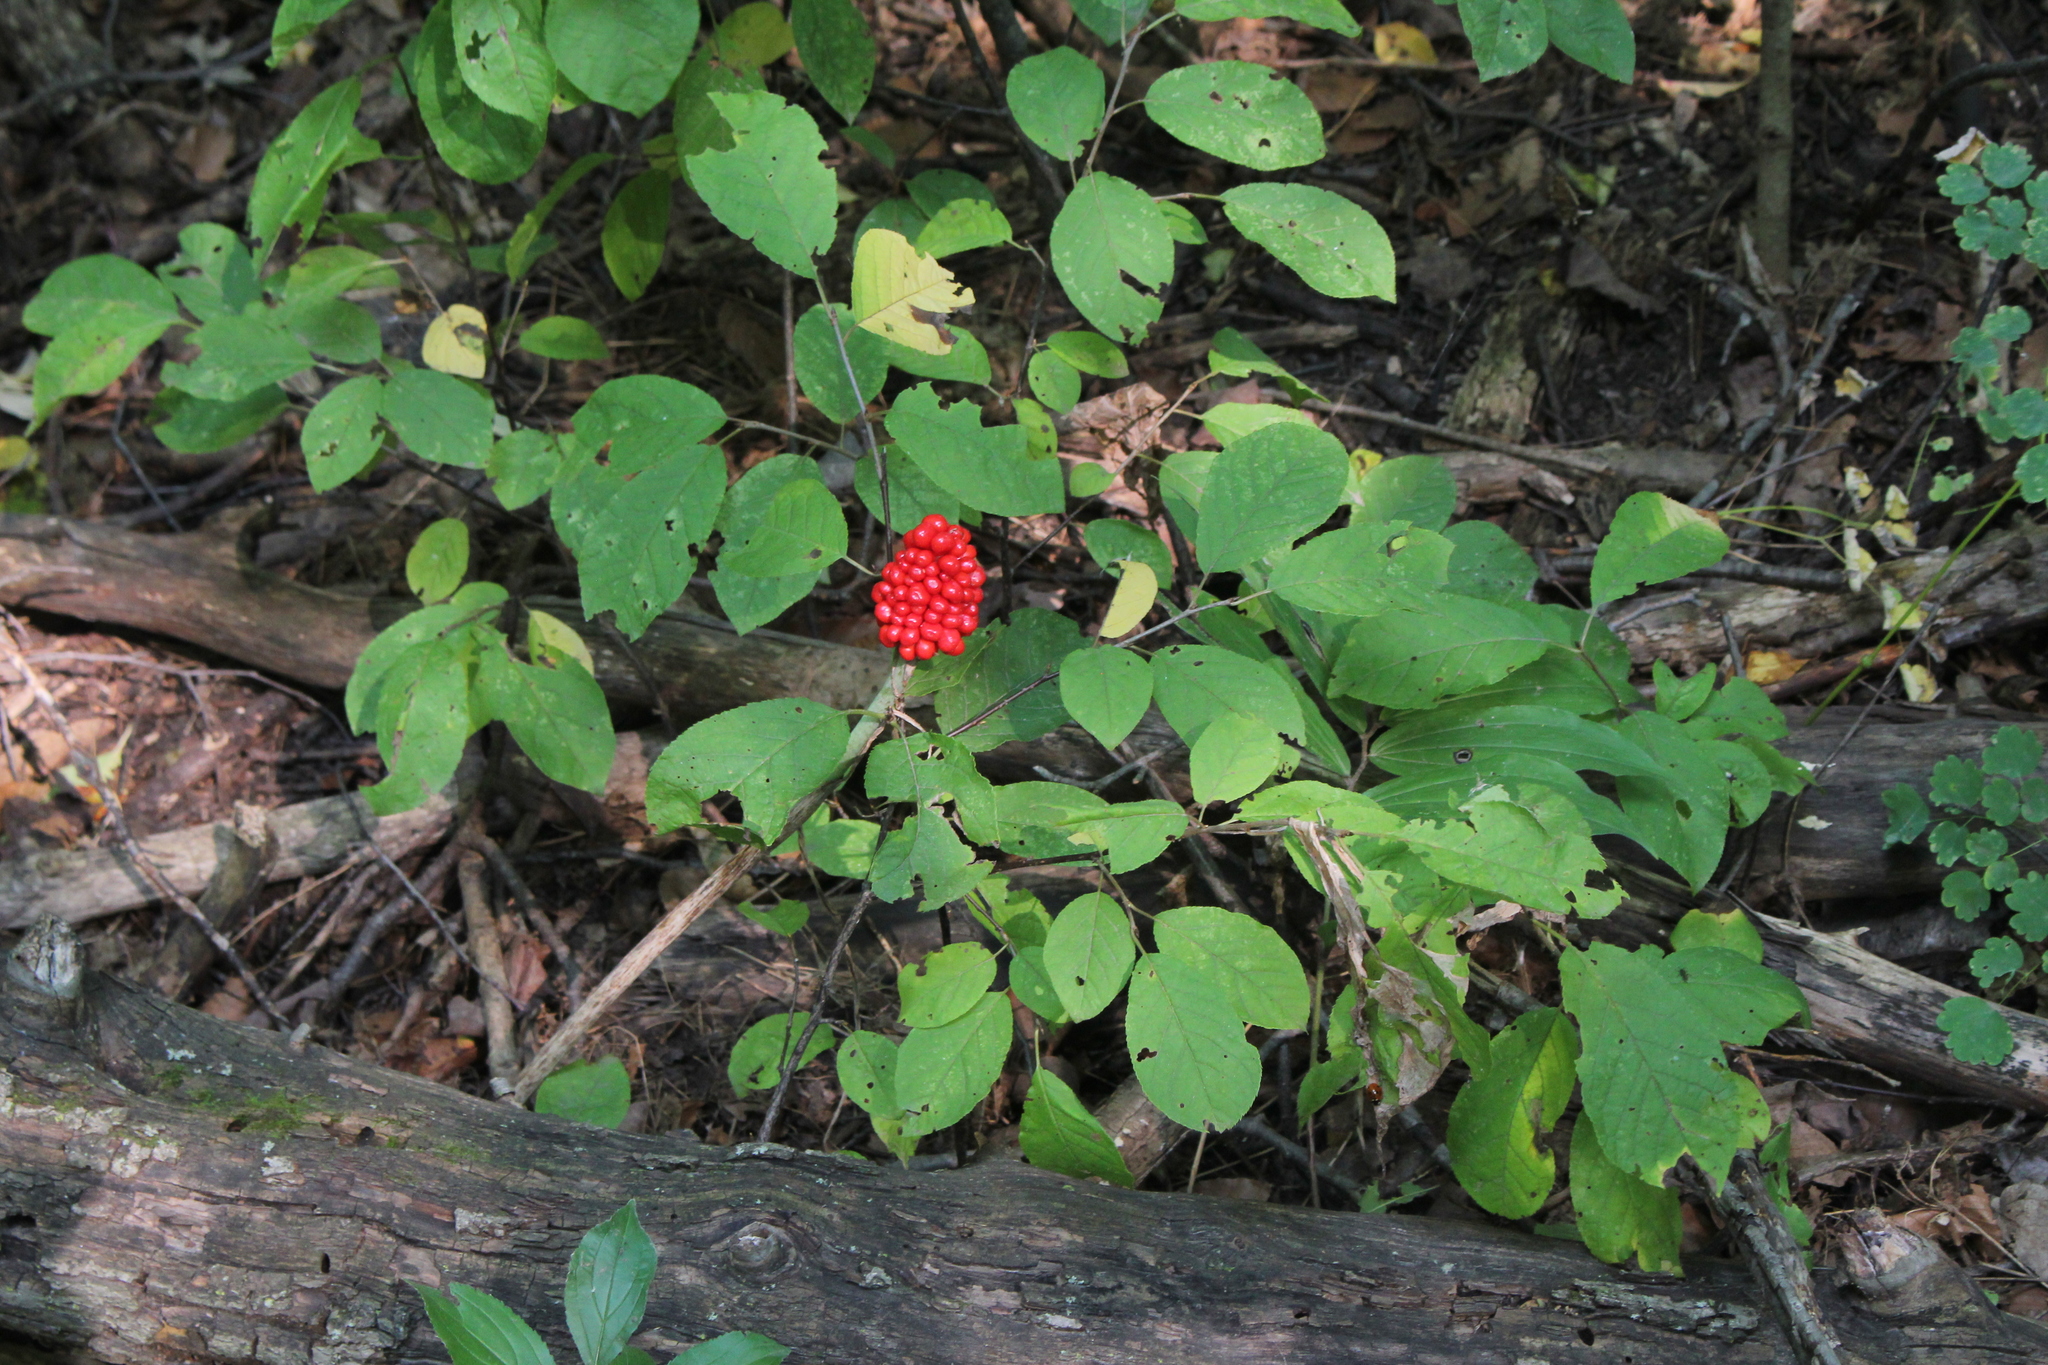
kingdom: Plantae
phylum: Tracheophyta
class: Liliopsida
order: Alismatales
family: Araceae
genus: Arisaema
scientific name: Arisaema triphyllum
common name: Jack-in-the-pulpit
